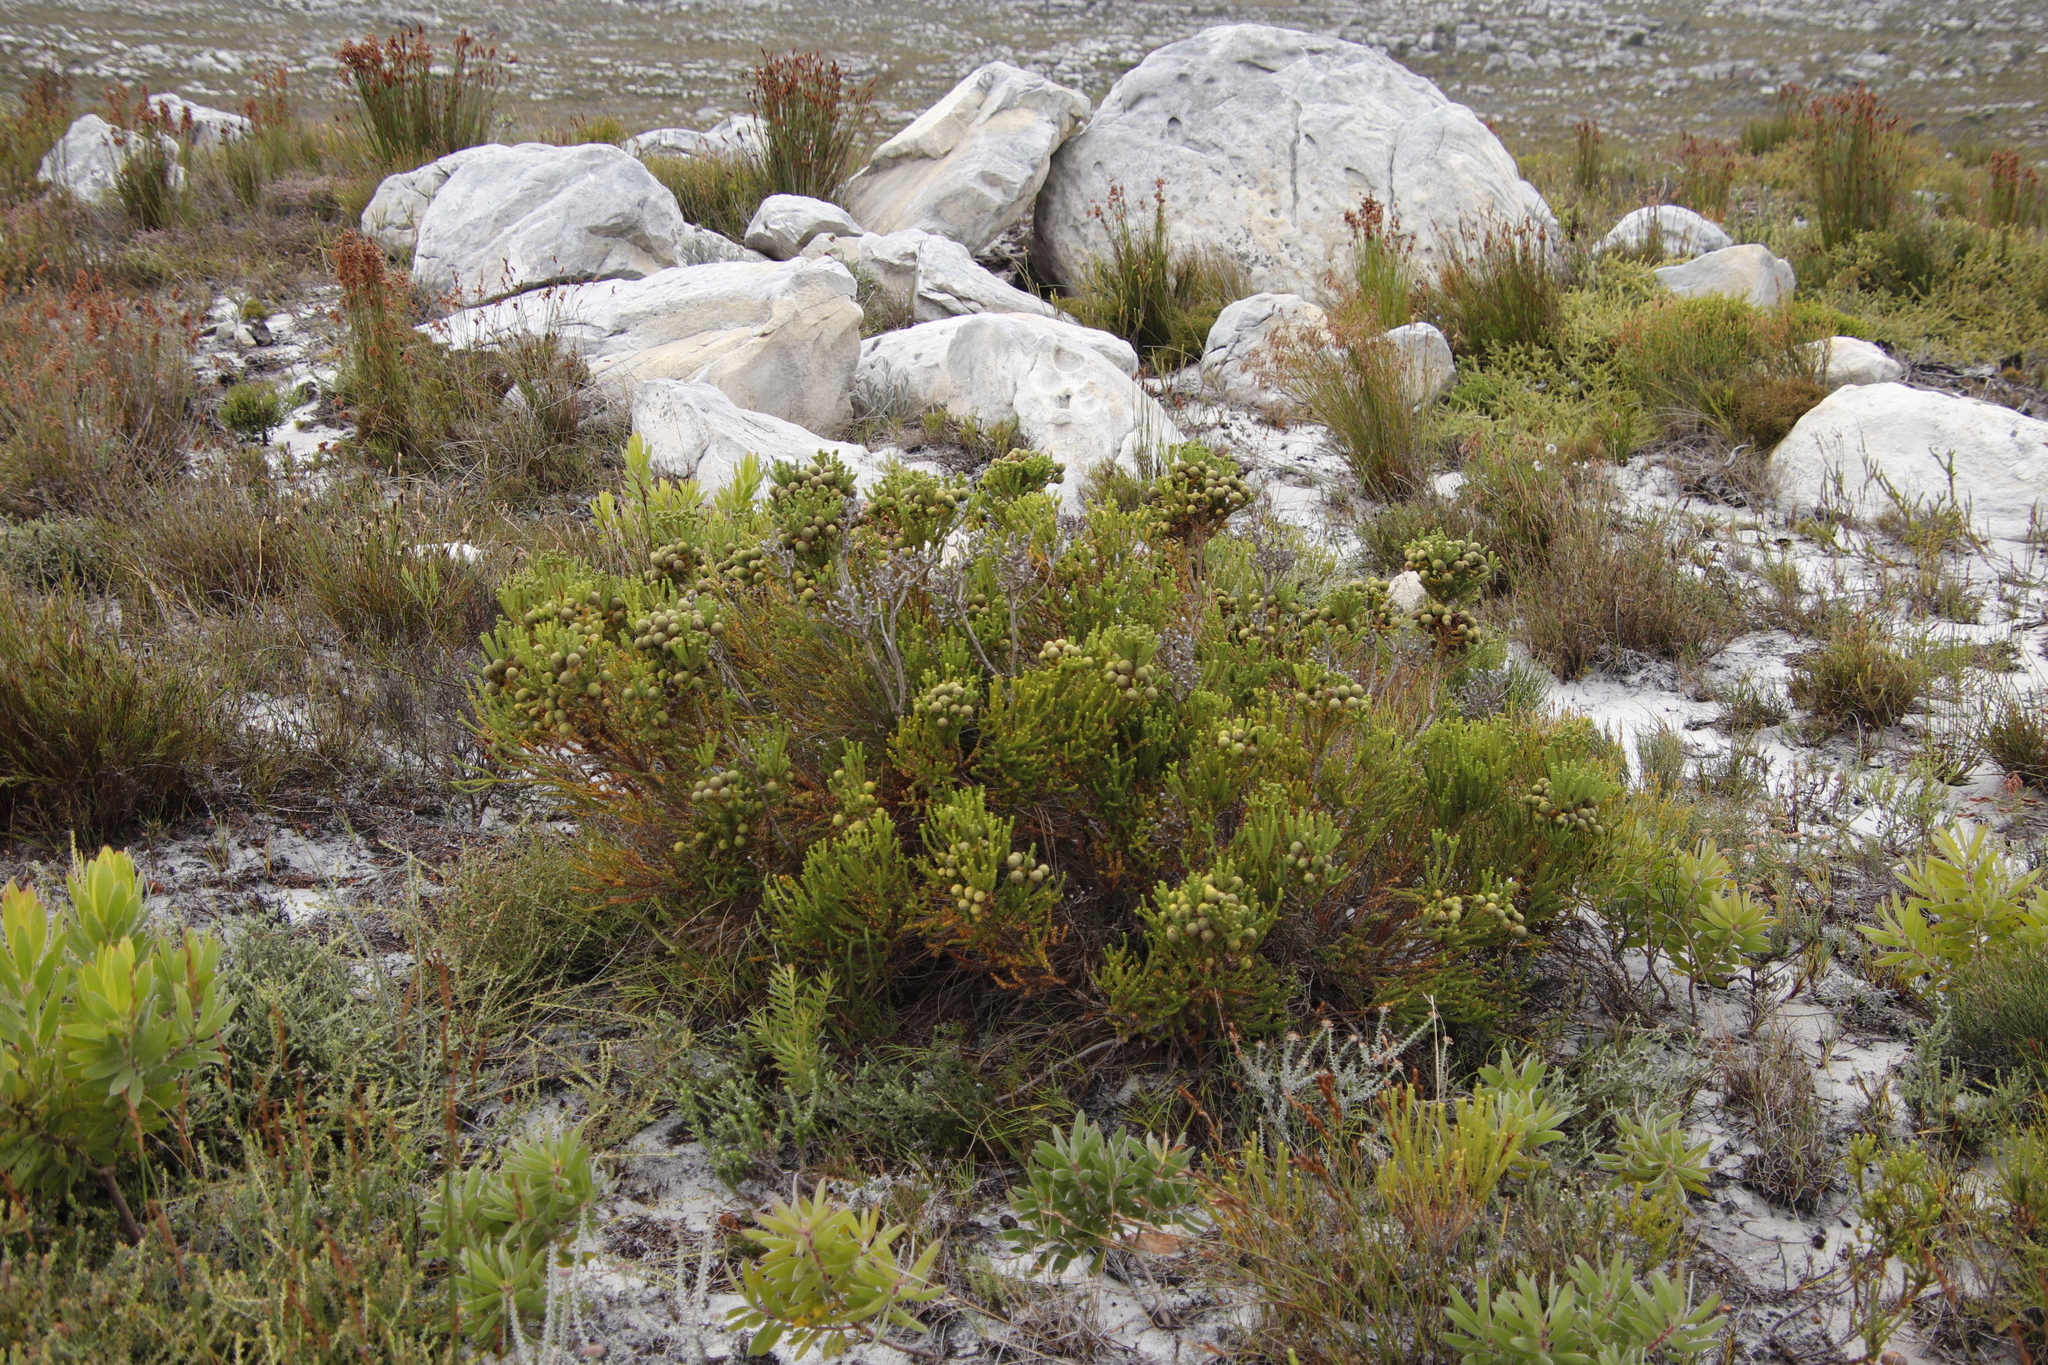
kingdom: Plantae
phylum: Tracheophyta
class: Magnoliopsida
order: Bruniales
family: Bruniaceae
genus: Berzelia
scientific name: Berzelia abrotanoides
